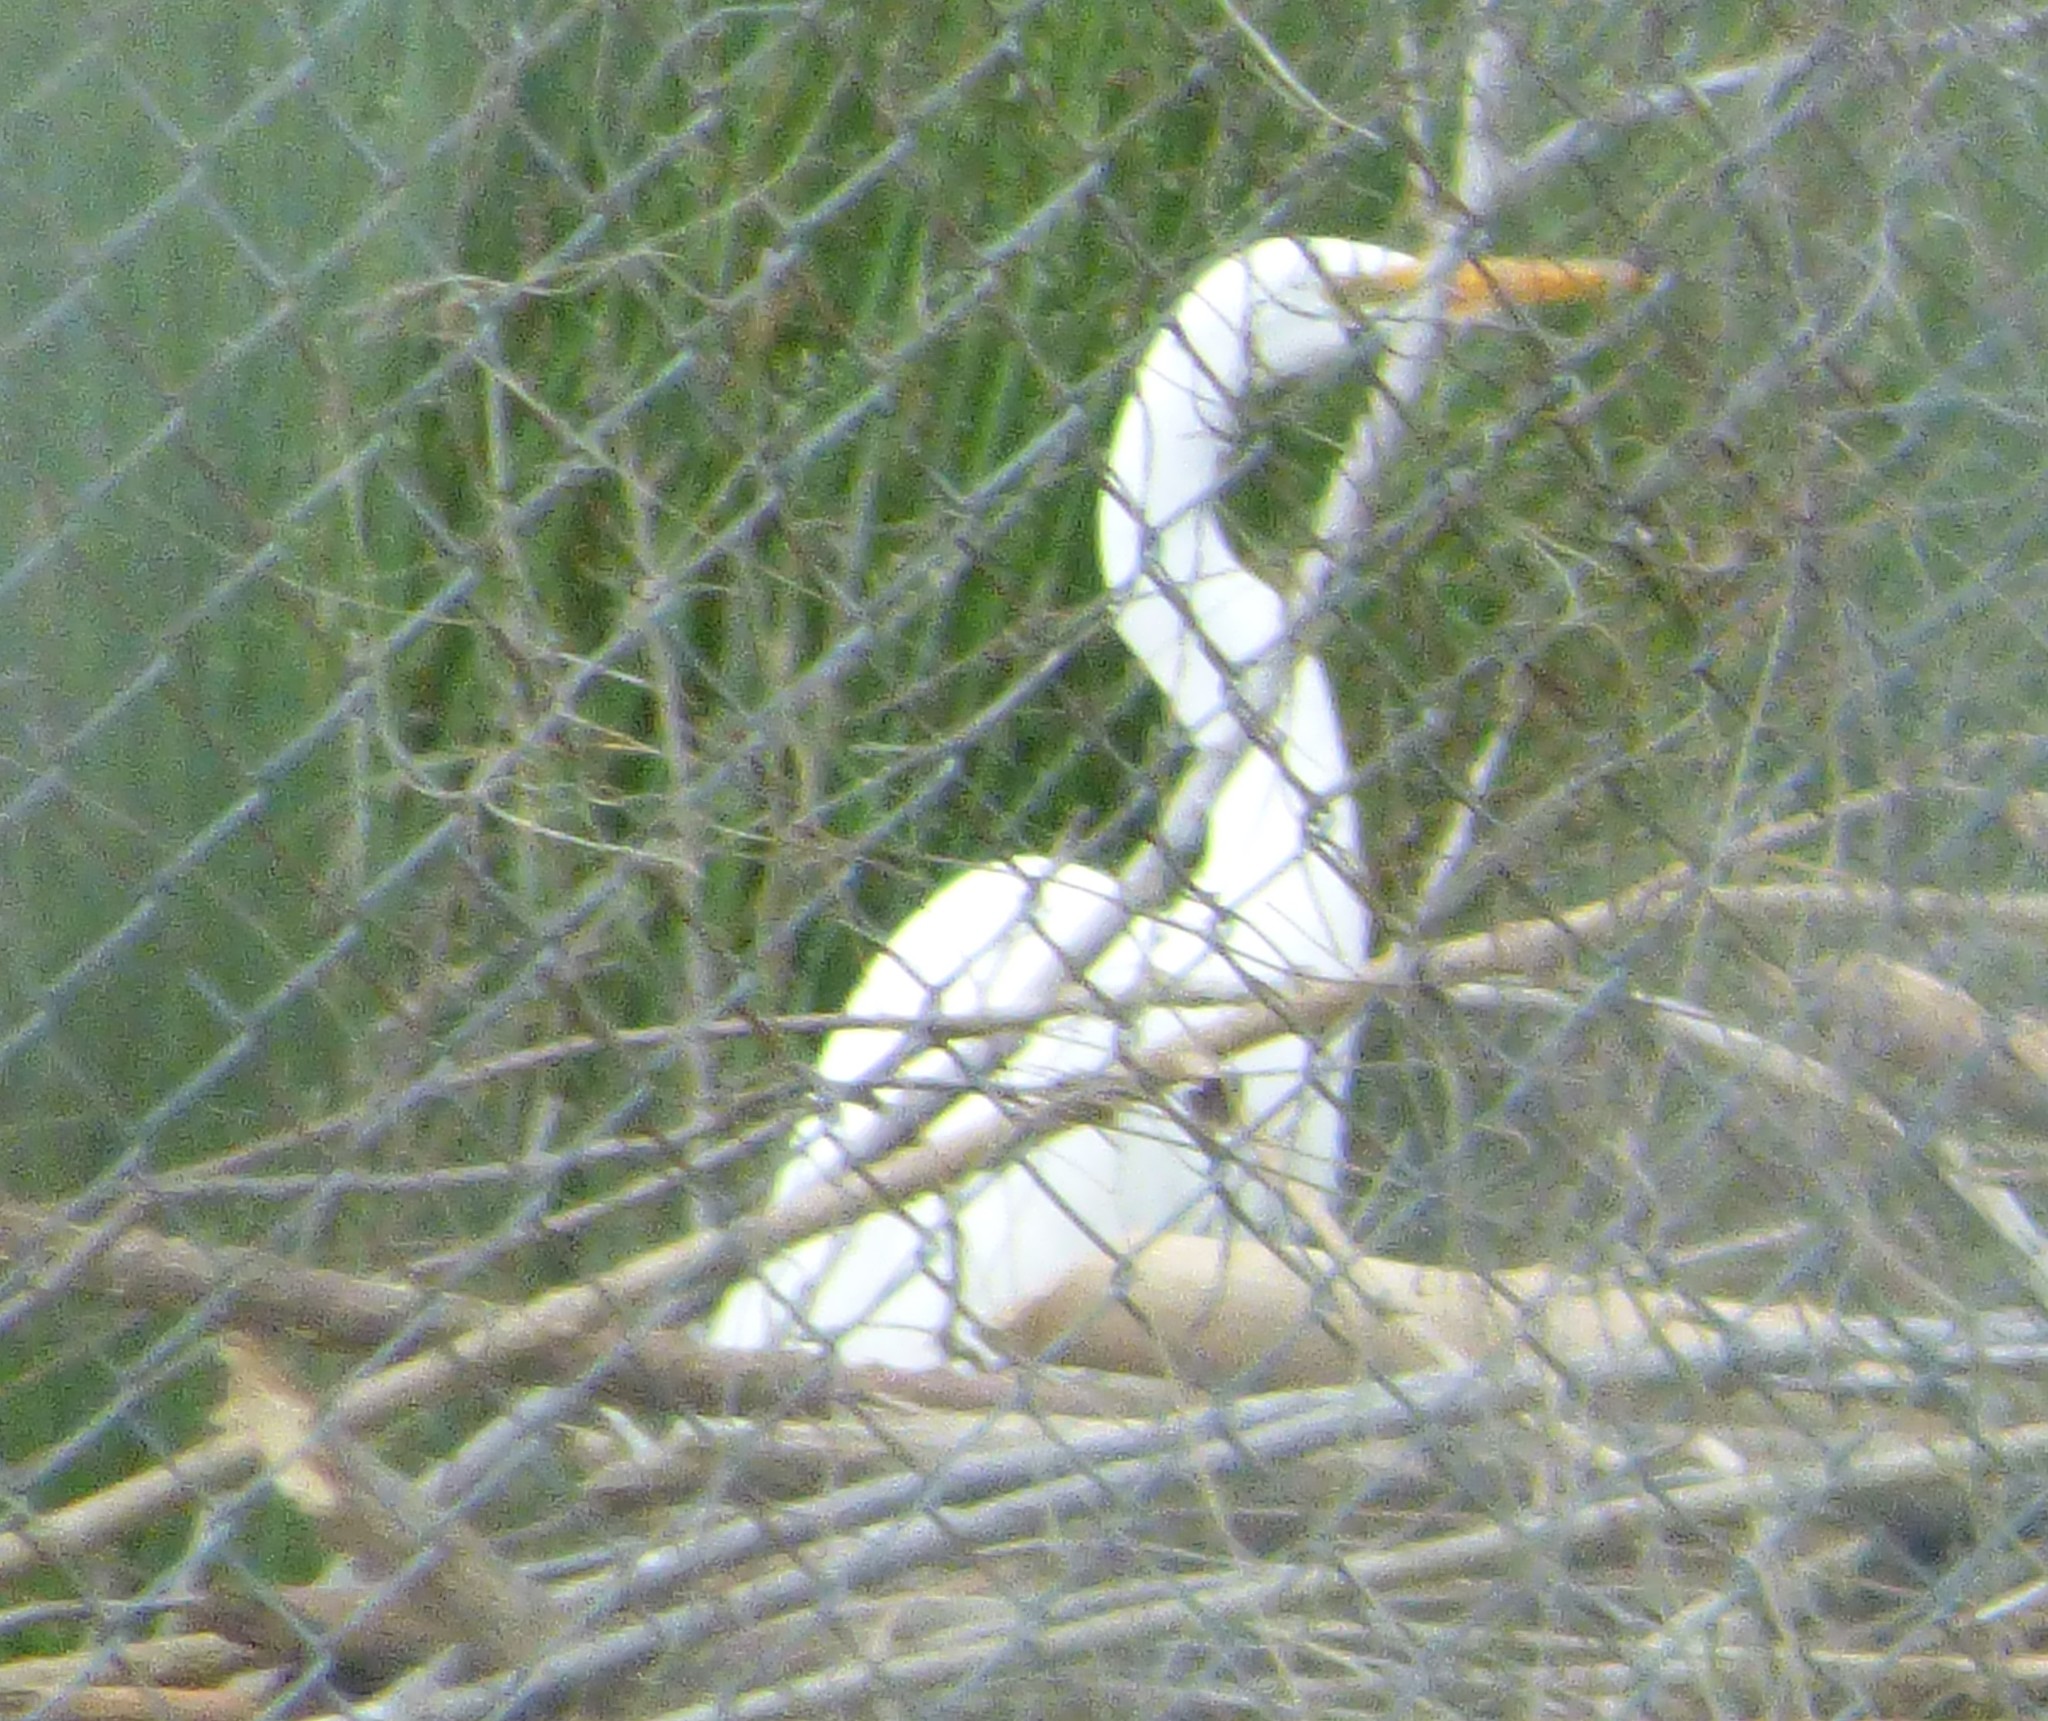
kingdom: Animalia
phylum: Chordata
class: Aves
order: Pelecaniformes
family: Ardeidae
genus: Ardea
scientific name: Ardea alba
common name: Great egret
